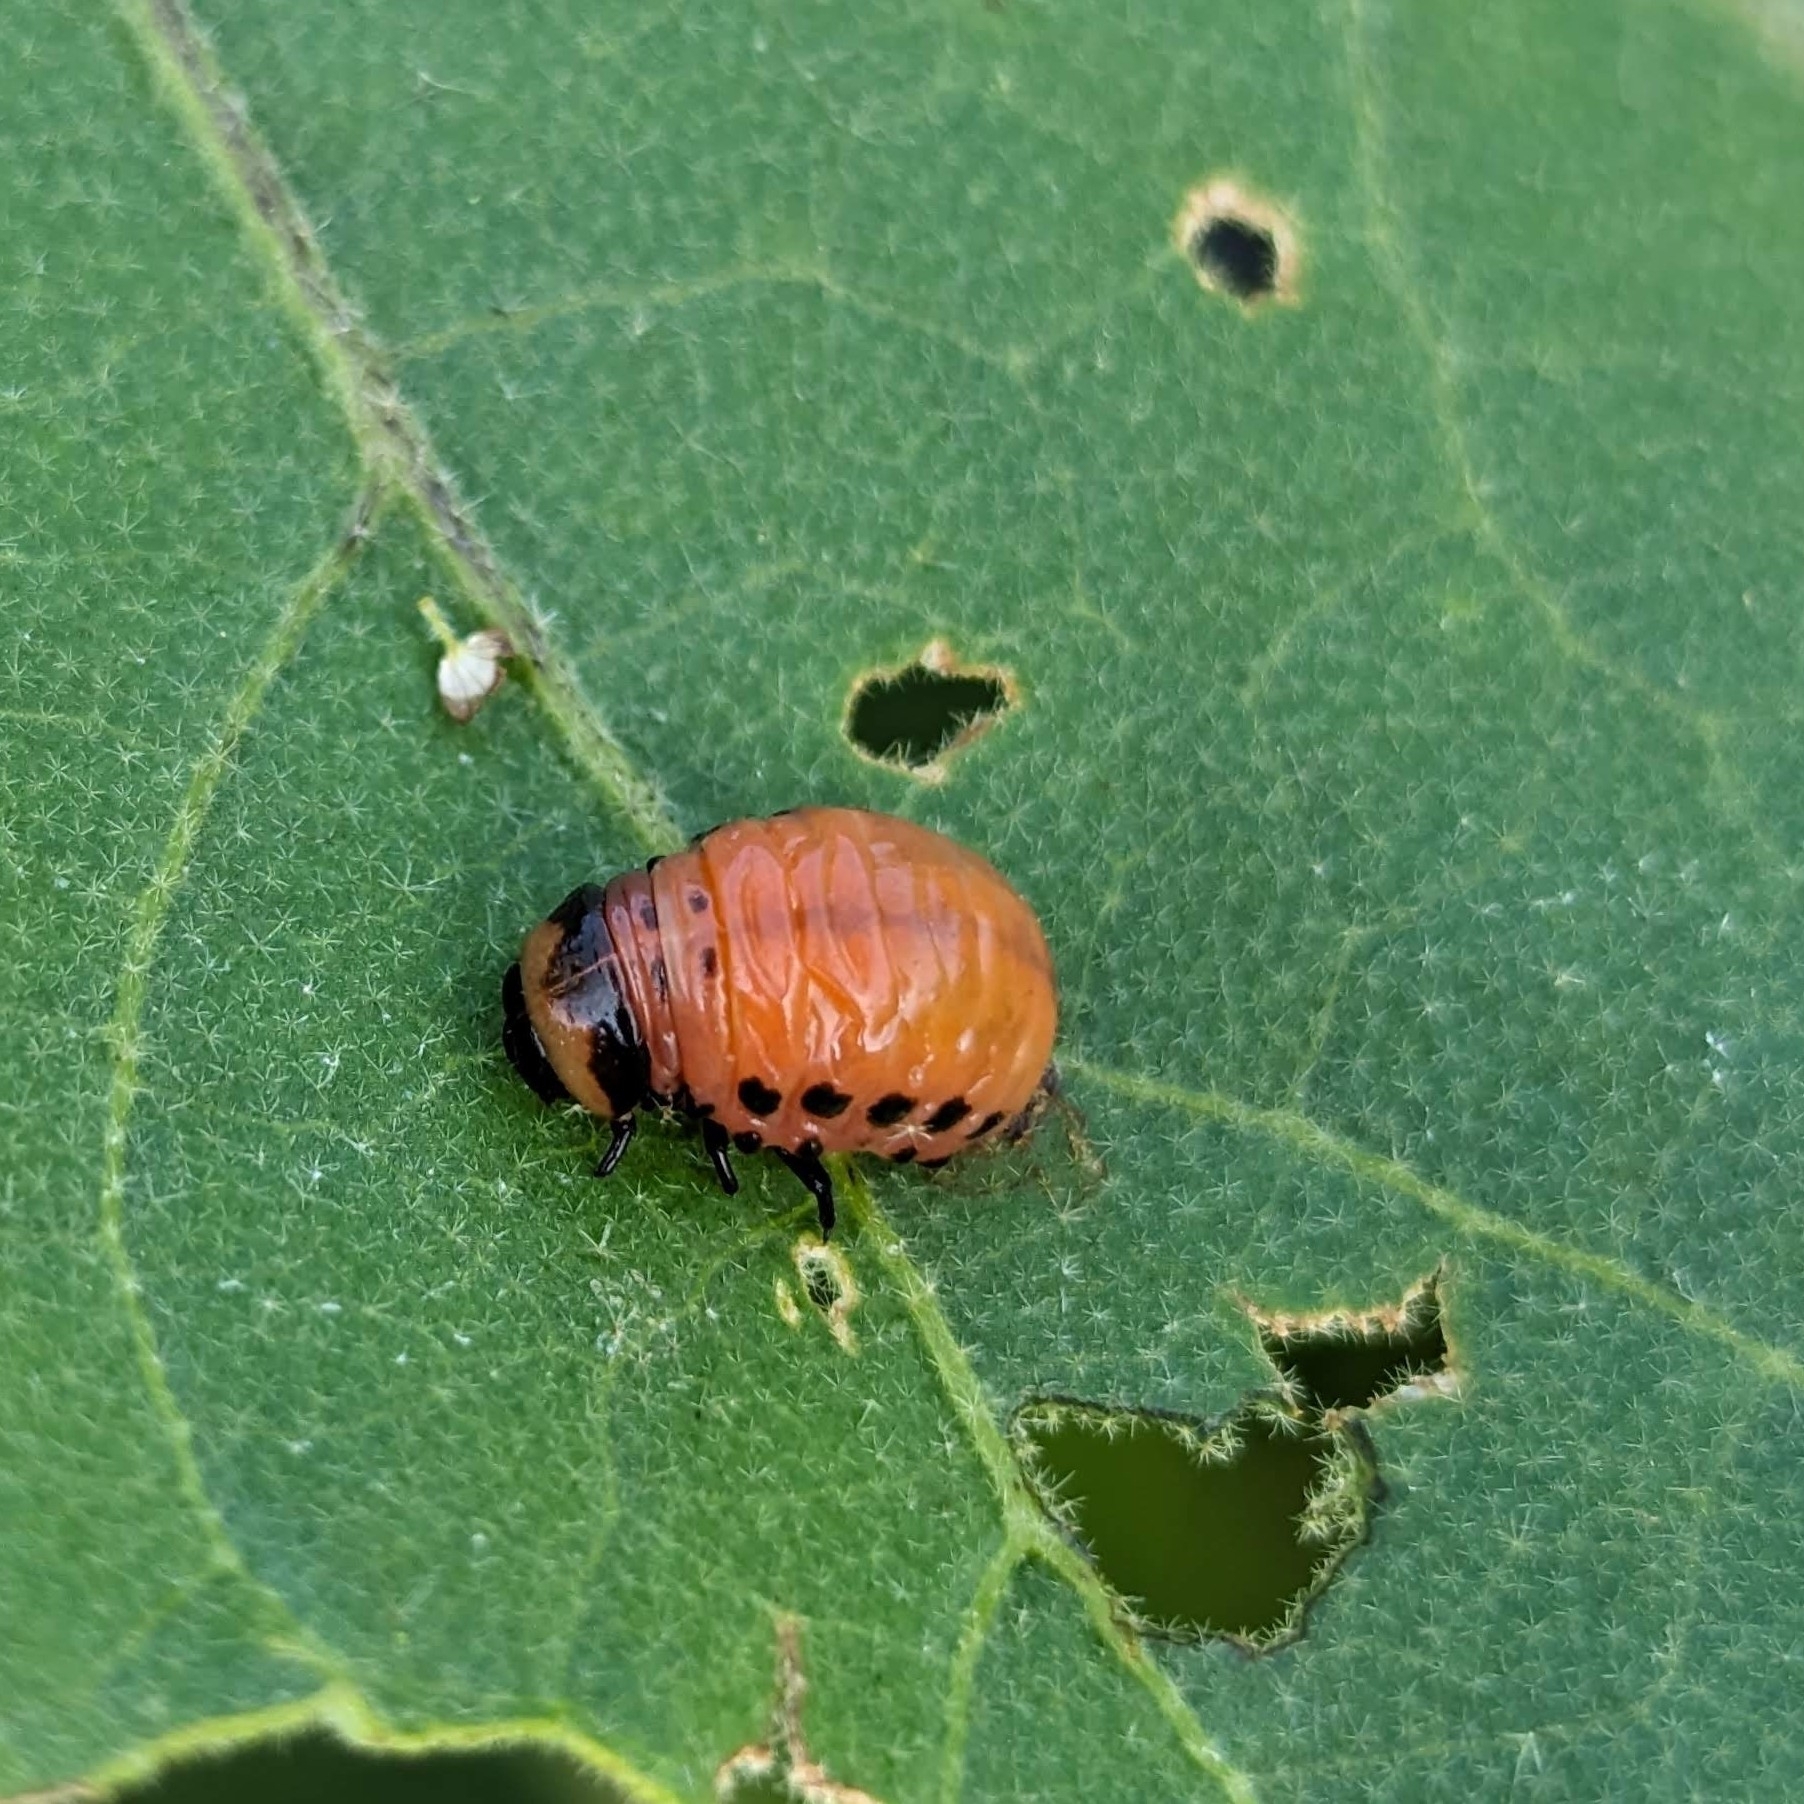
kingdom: Animalia
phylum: Arthropoda
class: Insecta
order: Coleoptera
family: Chrysomelidae
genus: Leptinotarsa
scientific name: Leptinotarsa decemlineata
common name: Colorado potato beetle
